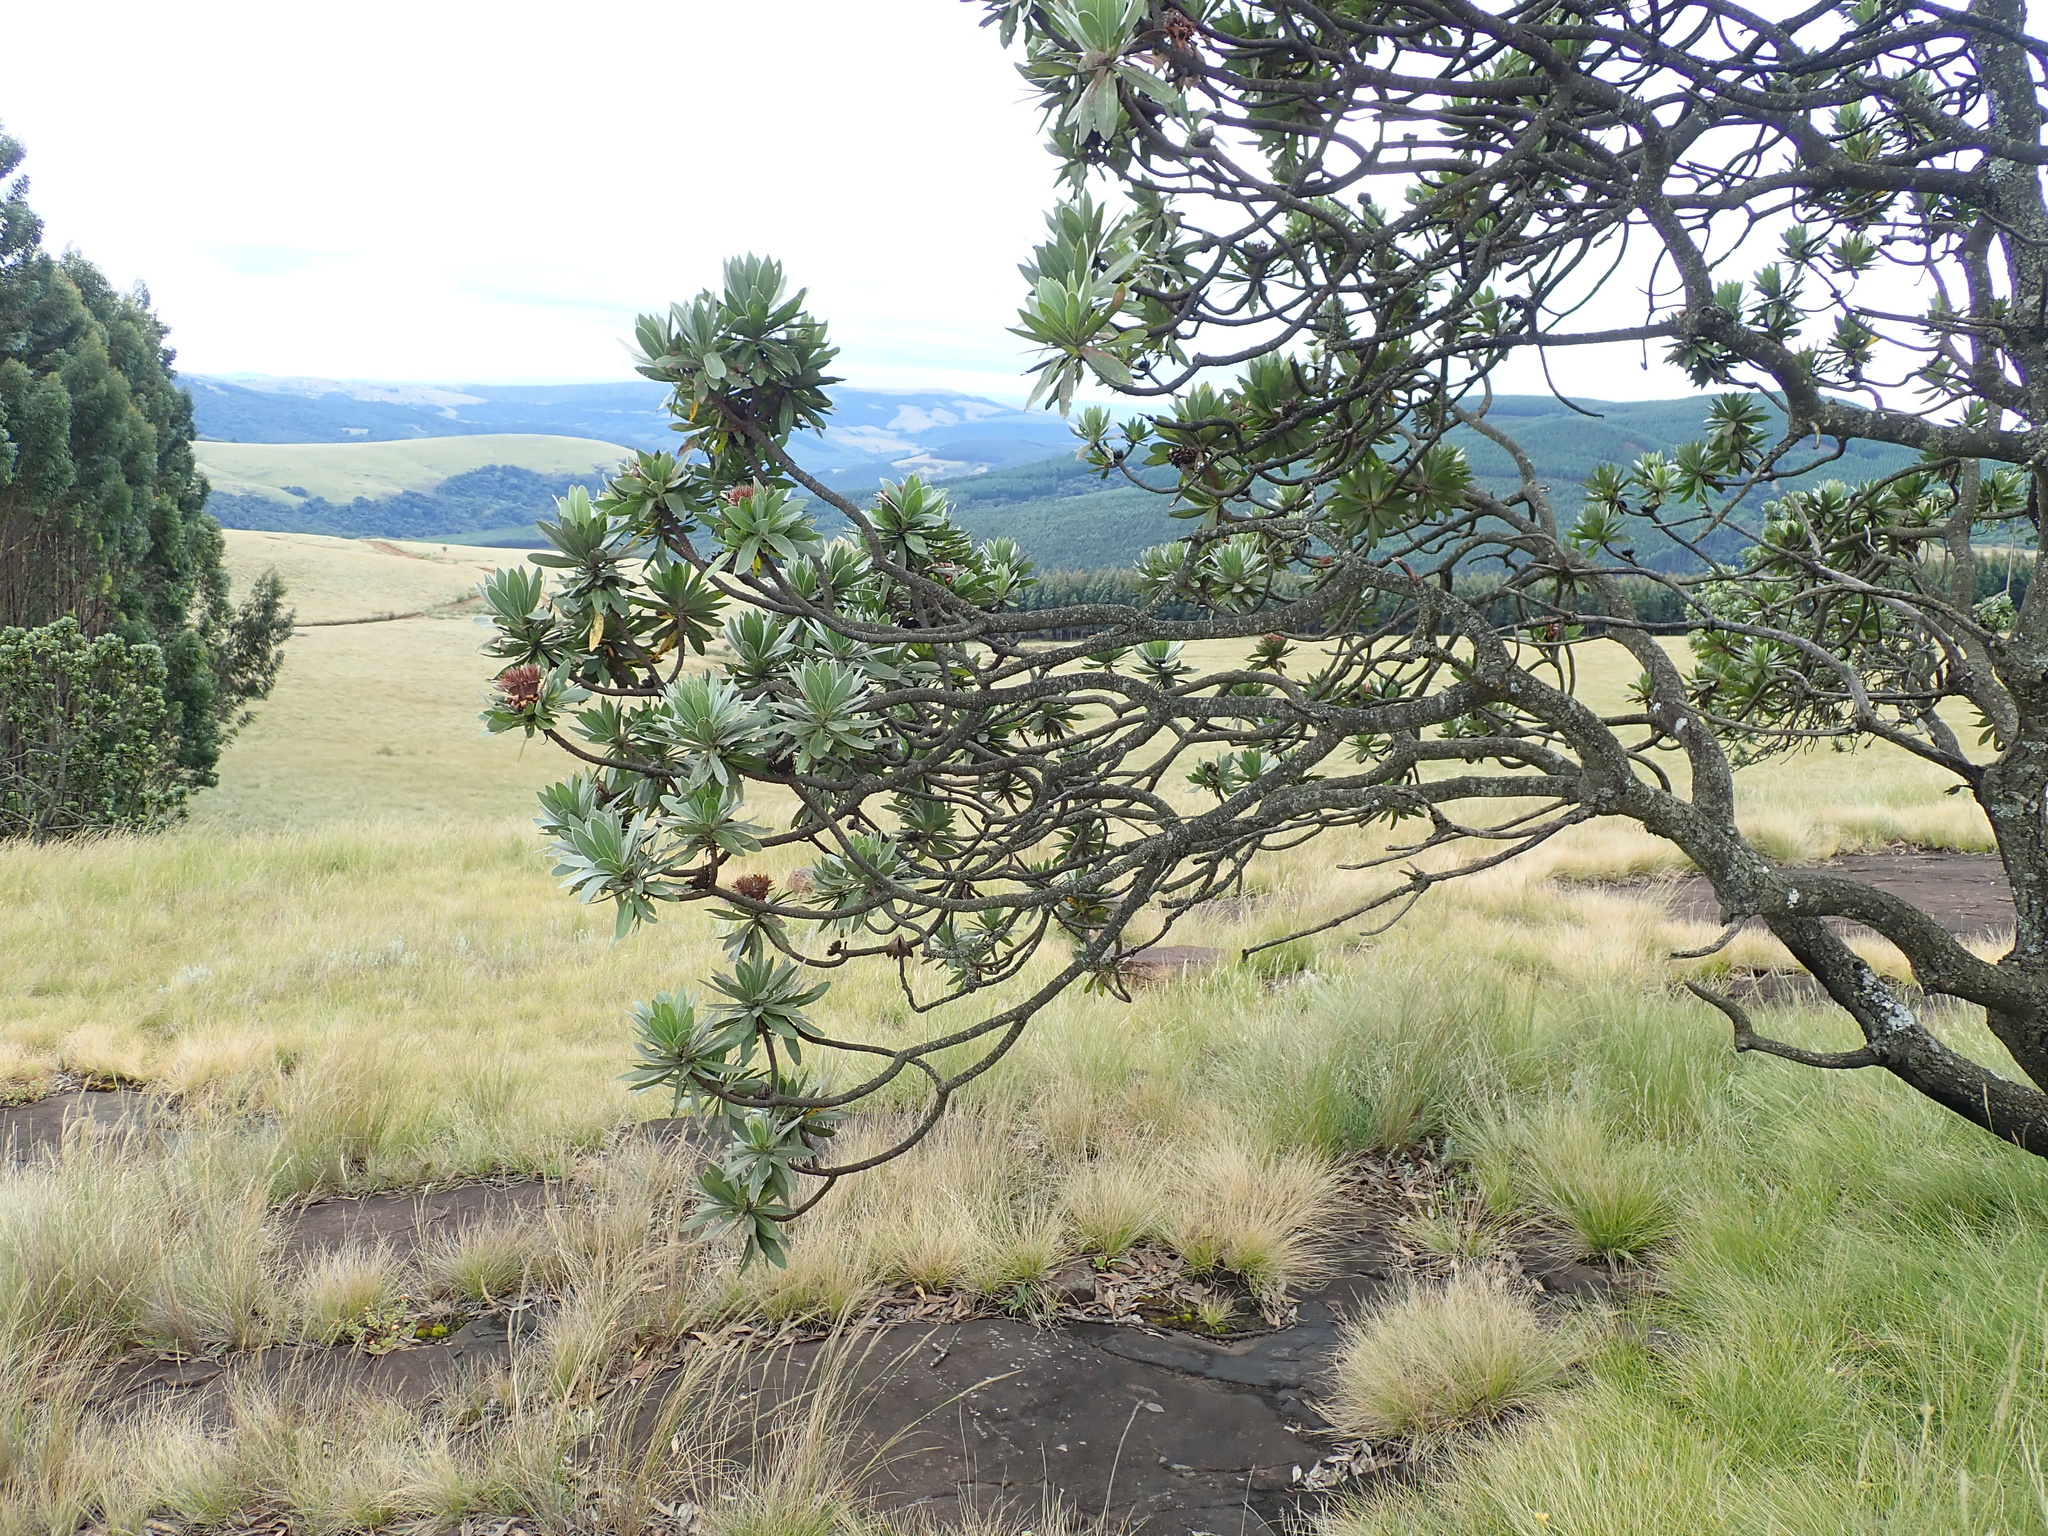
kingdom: Plantae
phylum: Tracheophyta
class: Magnoliopsida
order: Proteales
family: Proteaceae
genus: Protea
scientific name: Protea roupelliae
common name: Silver sugarbush
